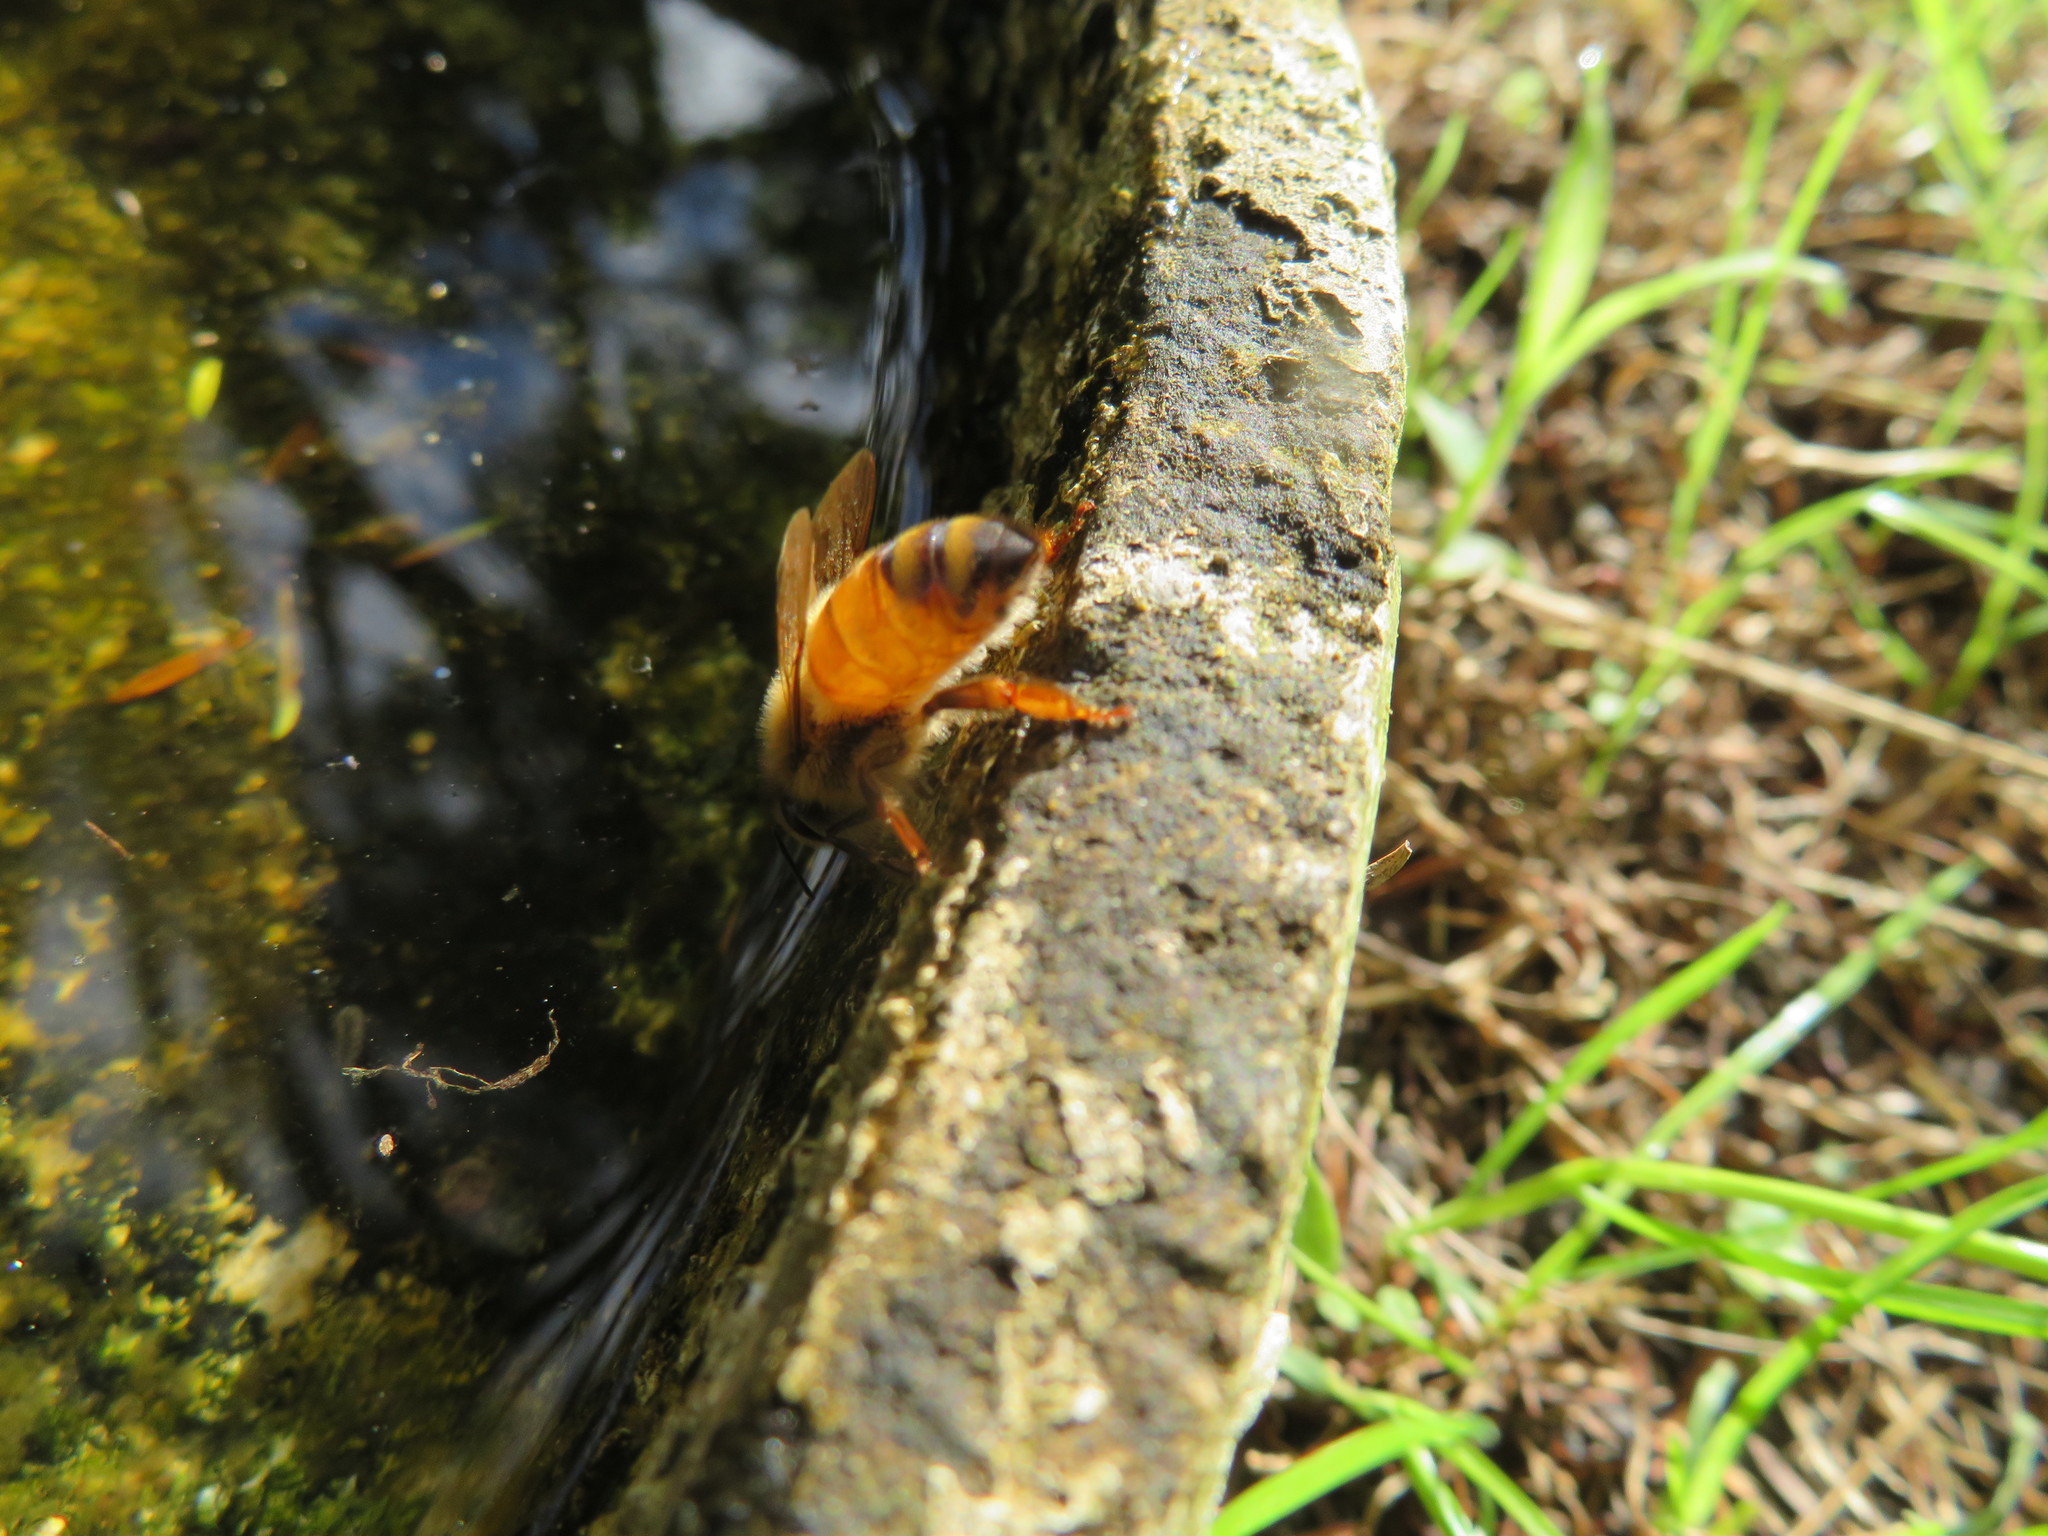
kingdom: Animalia
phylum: Arthropoda
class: Insecta
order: Hymenoptera
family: Apidae
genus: Apis
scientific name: Apis mellifera
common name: Honey bee
